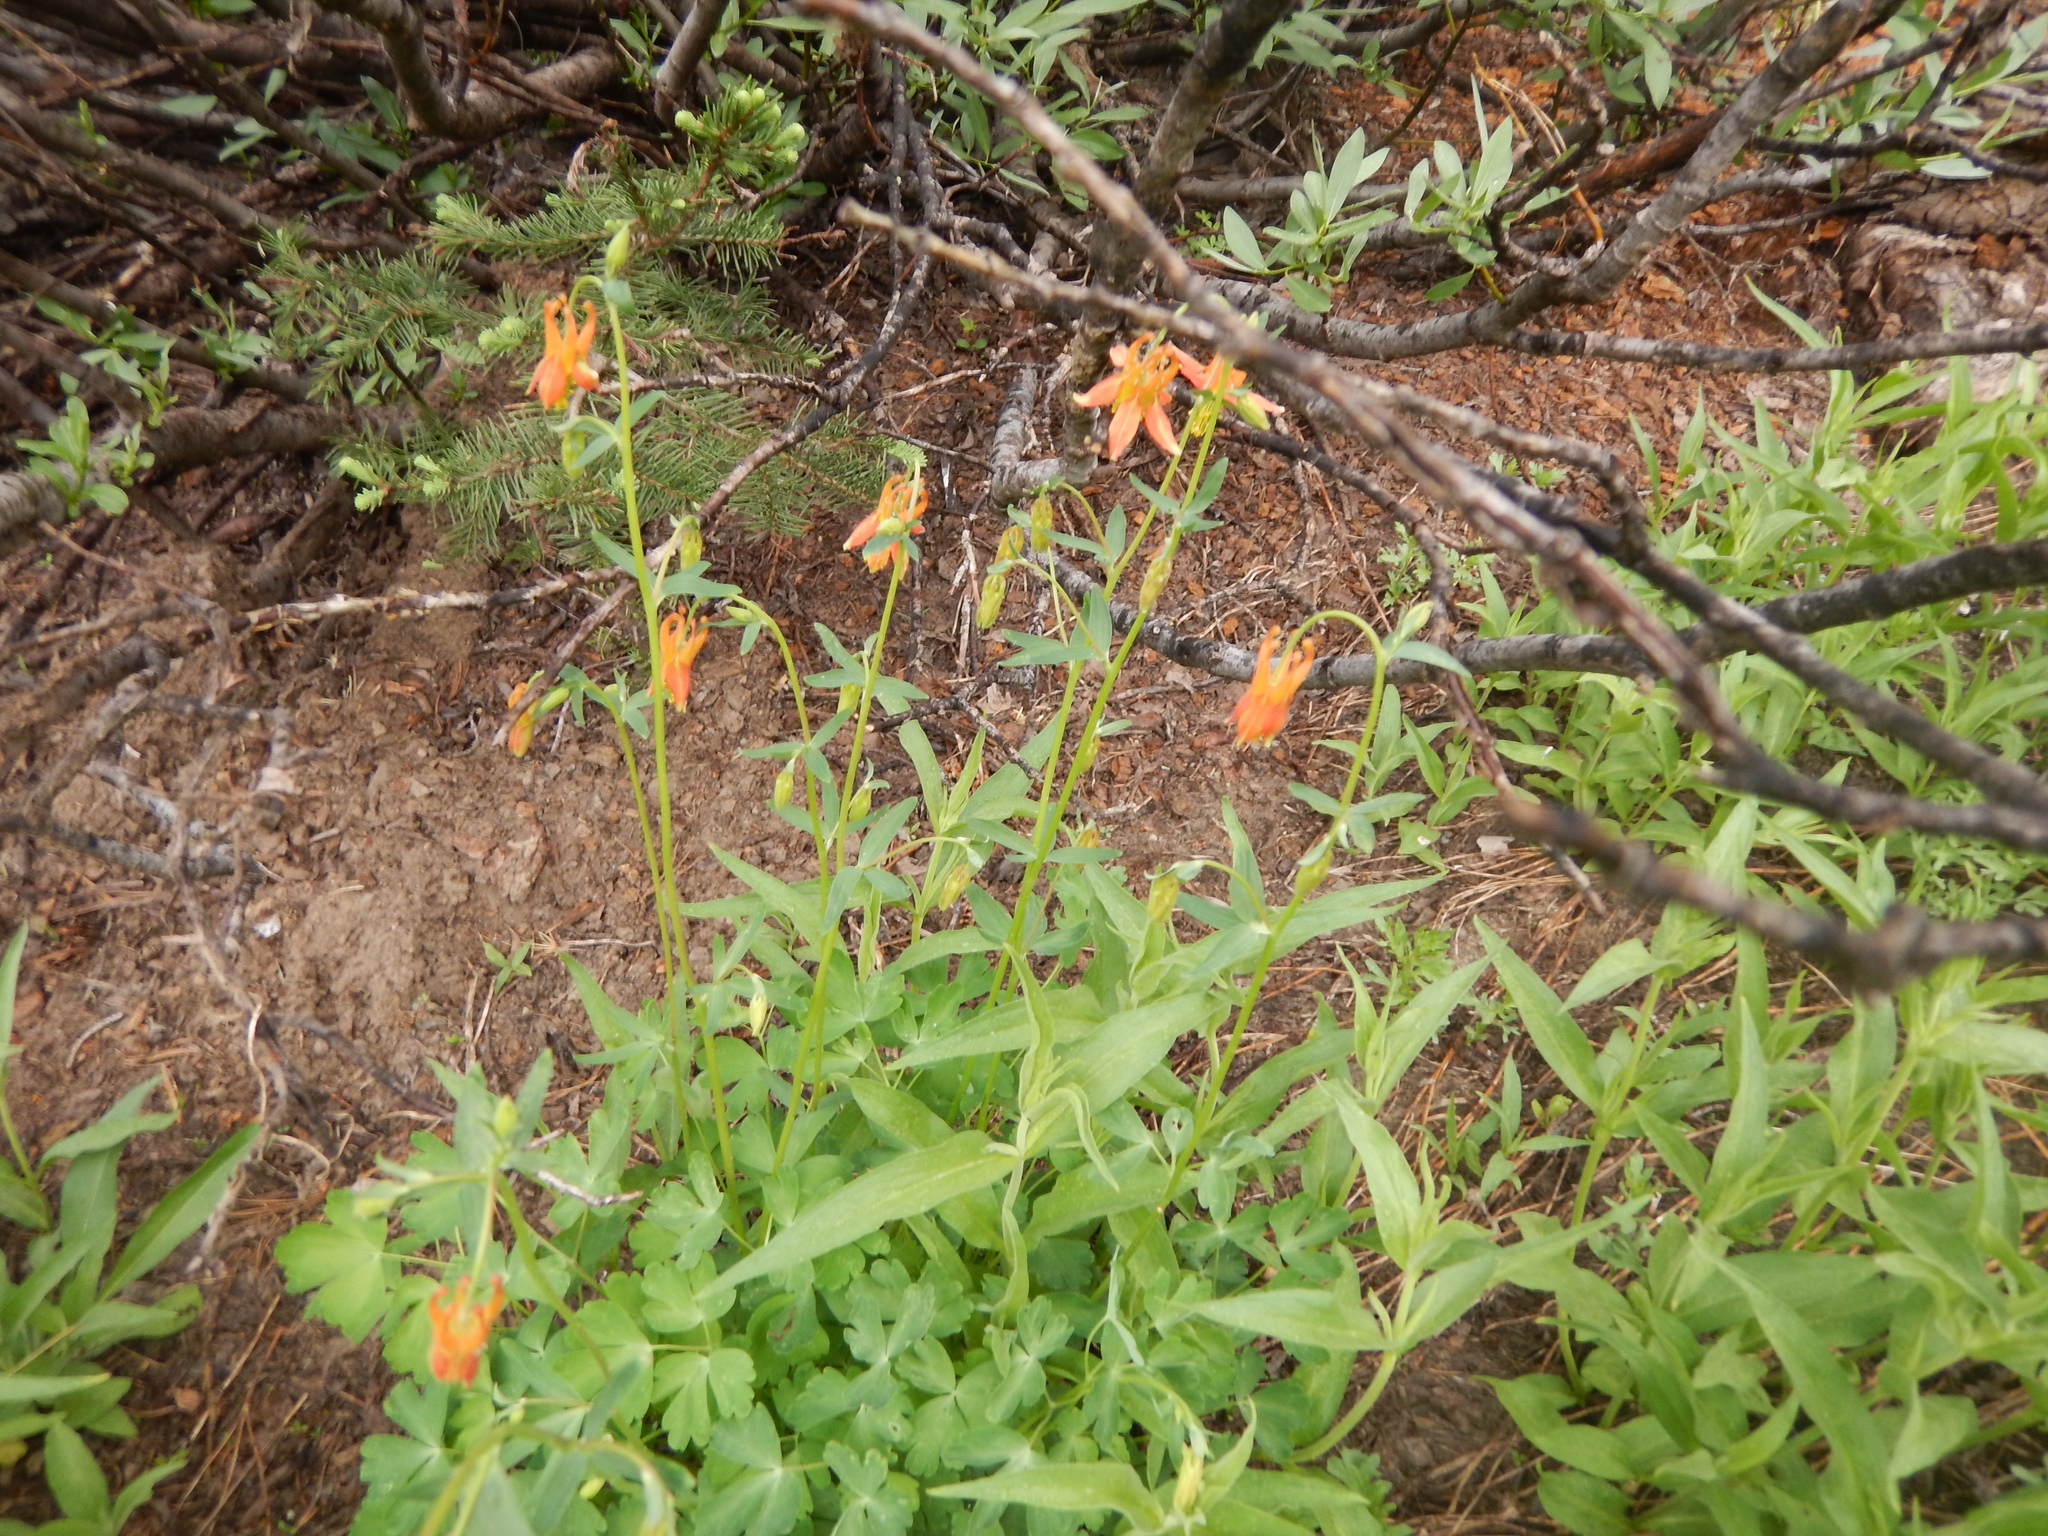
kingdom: Plantae
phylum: Tracheophyta
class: Magnoliopsida
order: Ranunculales
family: Ranunculaceae
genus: Aquilegia
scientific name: Aquilegia formosa
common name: Sitka columbine
